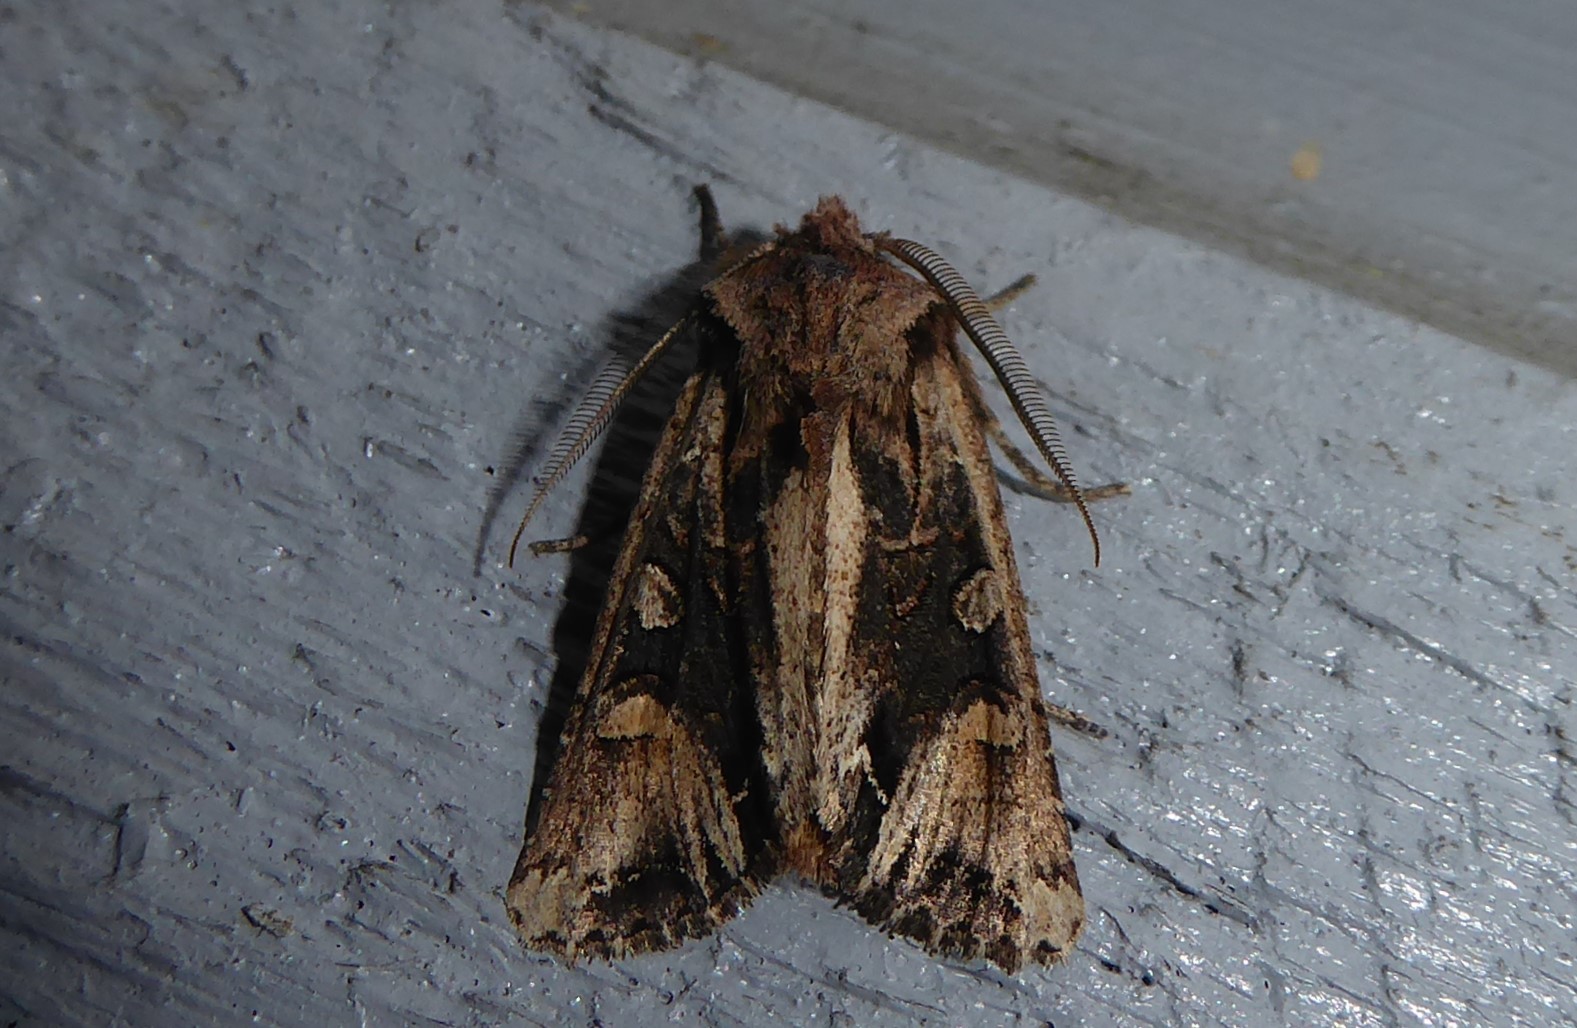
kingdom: Animalia
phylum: Arthropoda
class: Insecta
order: Lepidoptera
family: Noctuidae
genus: Ichneutica
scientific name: Ichneutica
